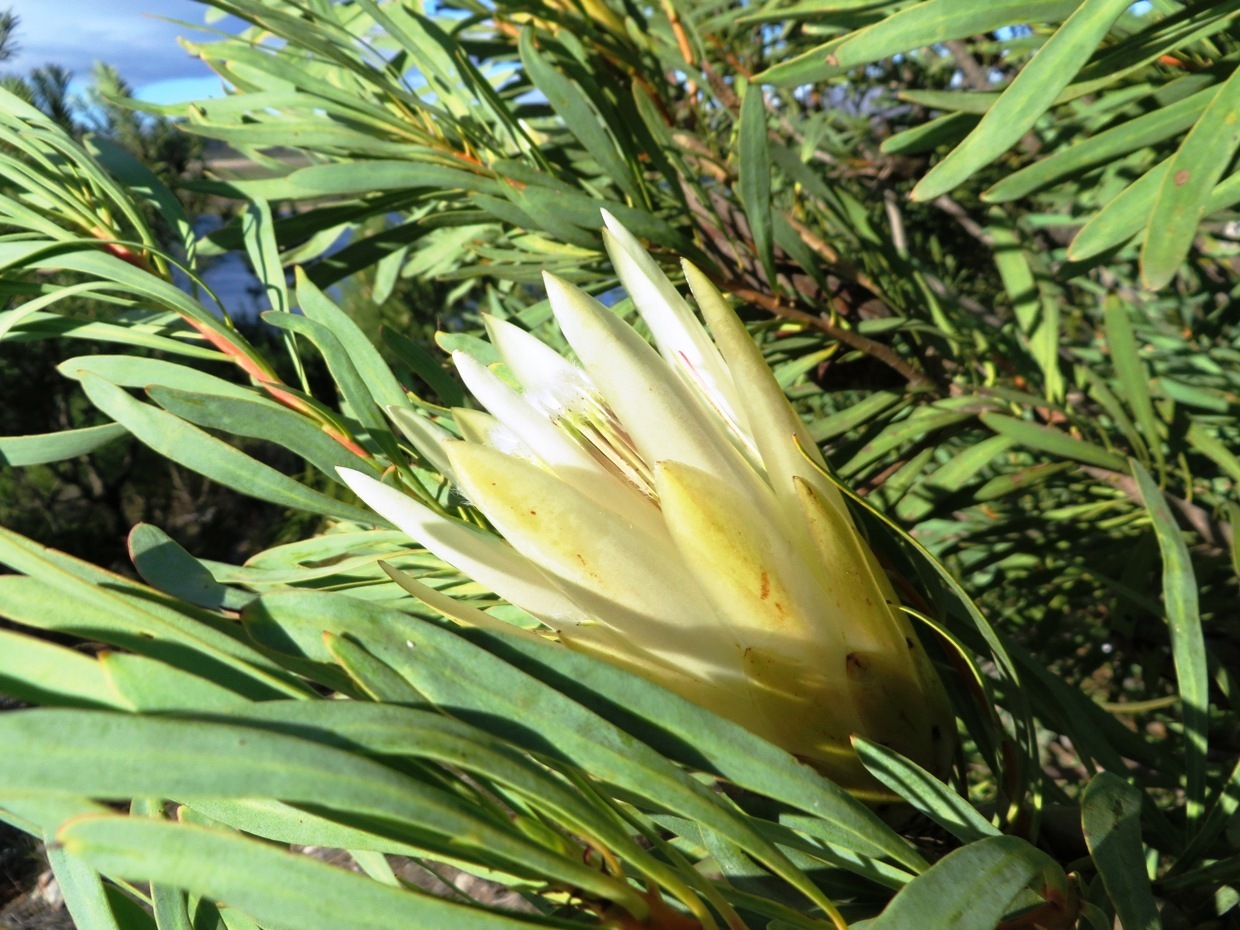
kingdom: Plantae
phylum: Tracheophyta
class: Magnoliopsida
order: Proteales
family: Proteaceae
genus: Protea
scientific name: Protea repens
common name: Sugarbush
